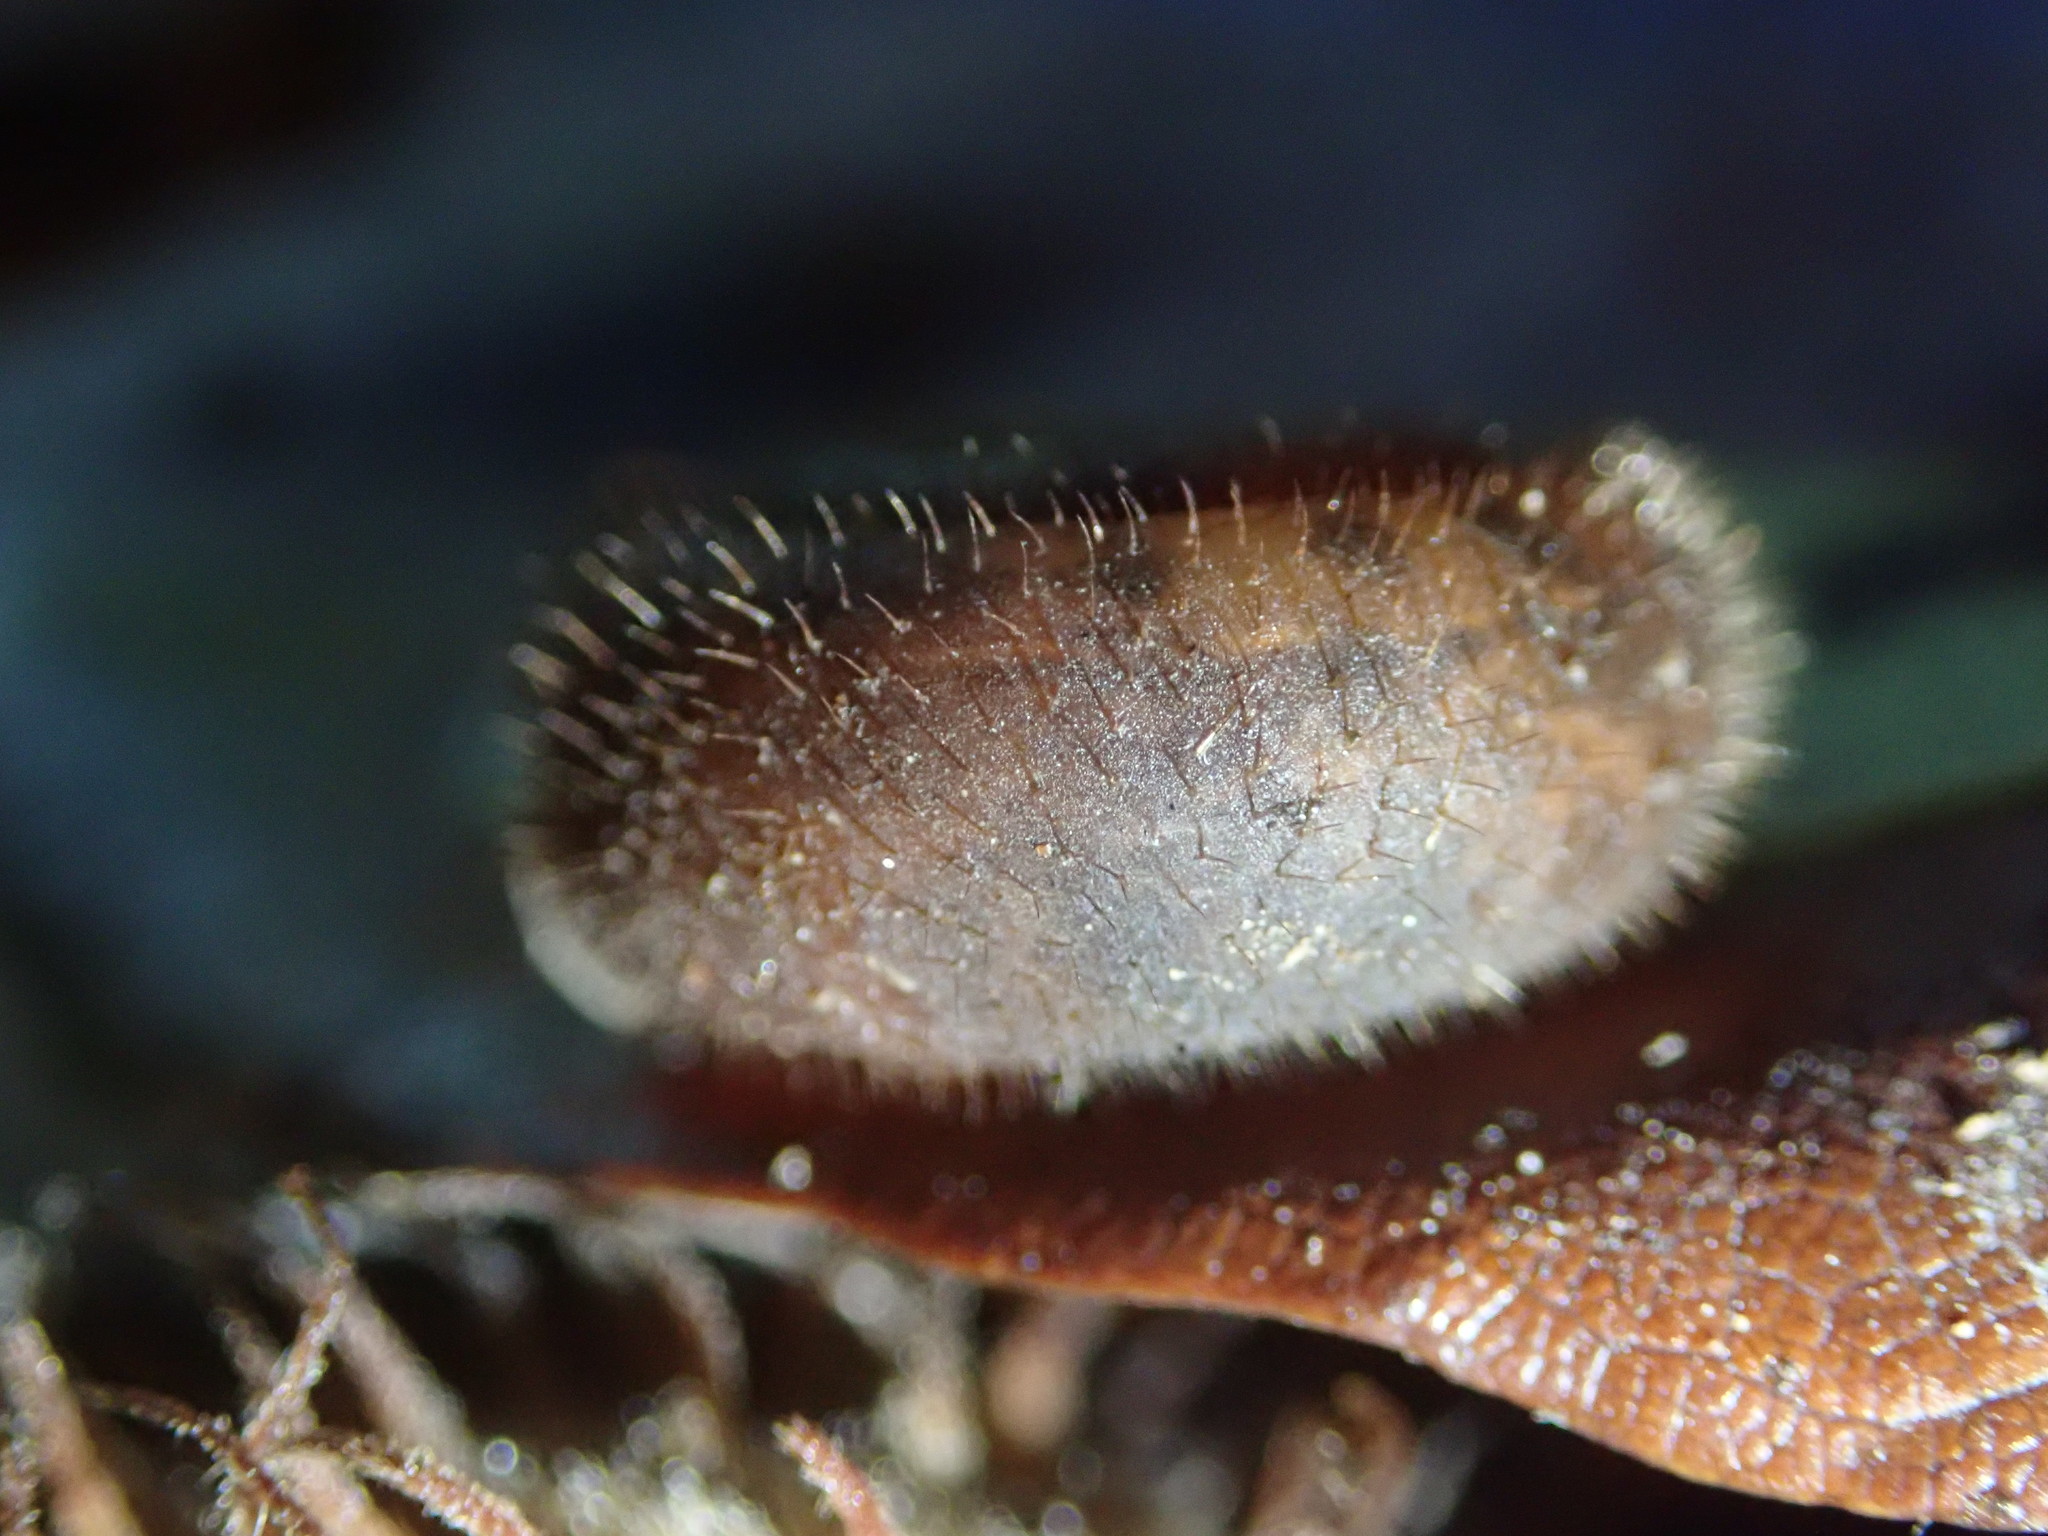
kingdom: Animalia
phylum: Mollusca
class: Gastropoda
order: Stylommatophora
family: Helicodontidae
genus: Helicodonta
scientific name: Helicodonta obvoluta
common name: Cheese snail
